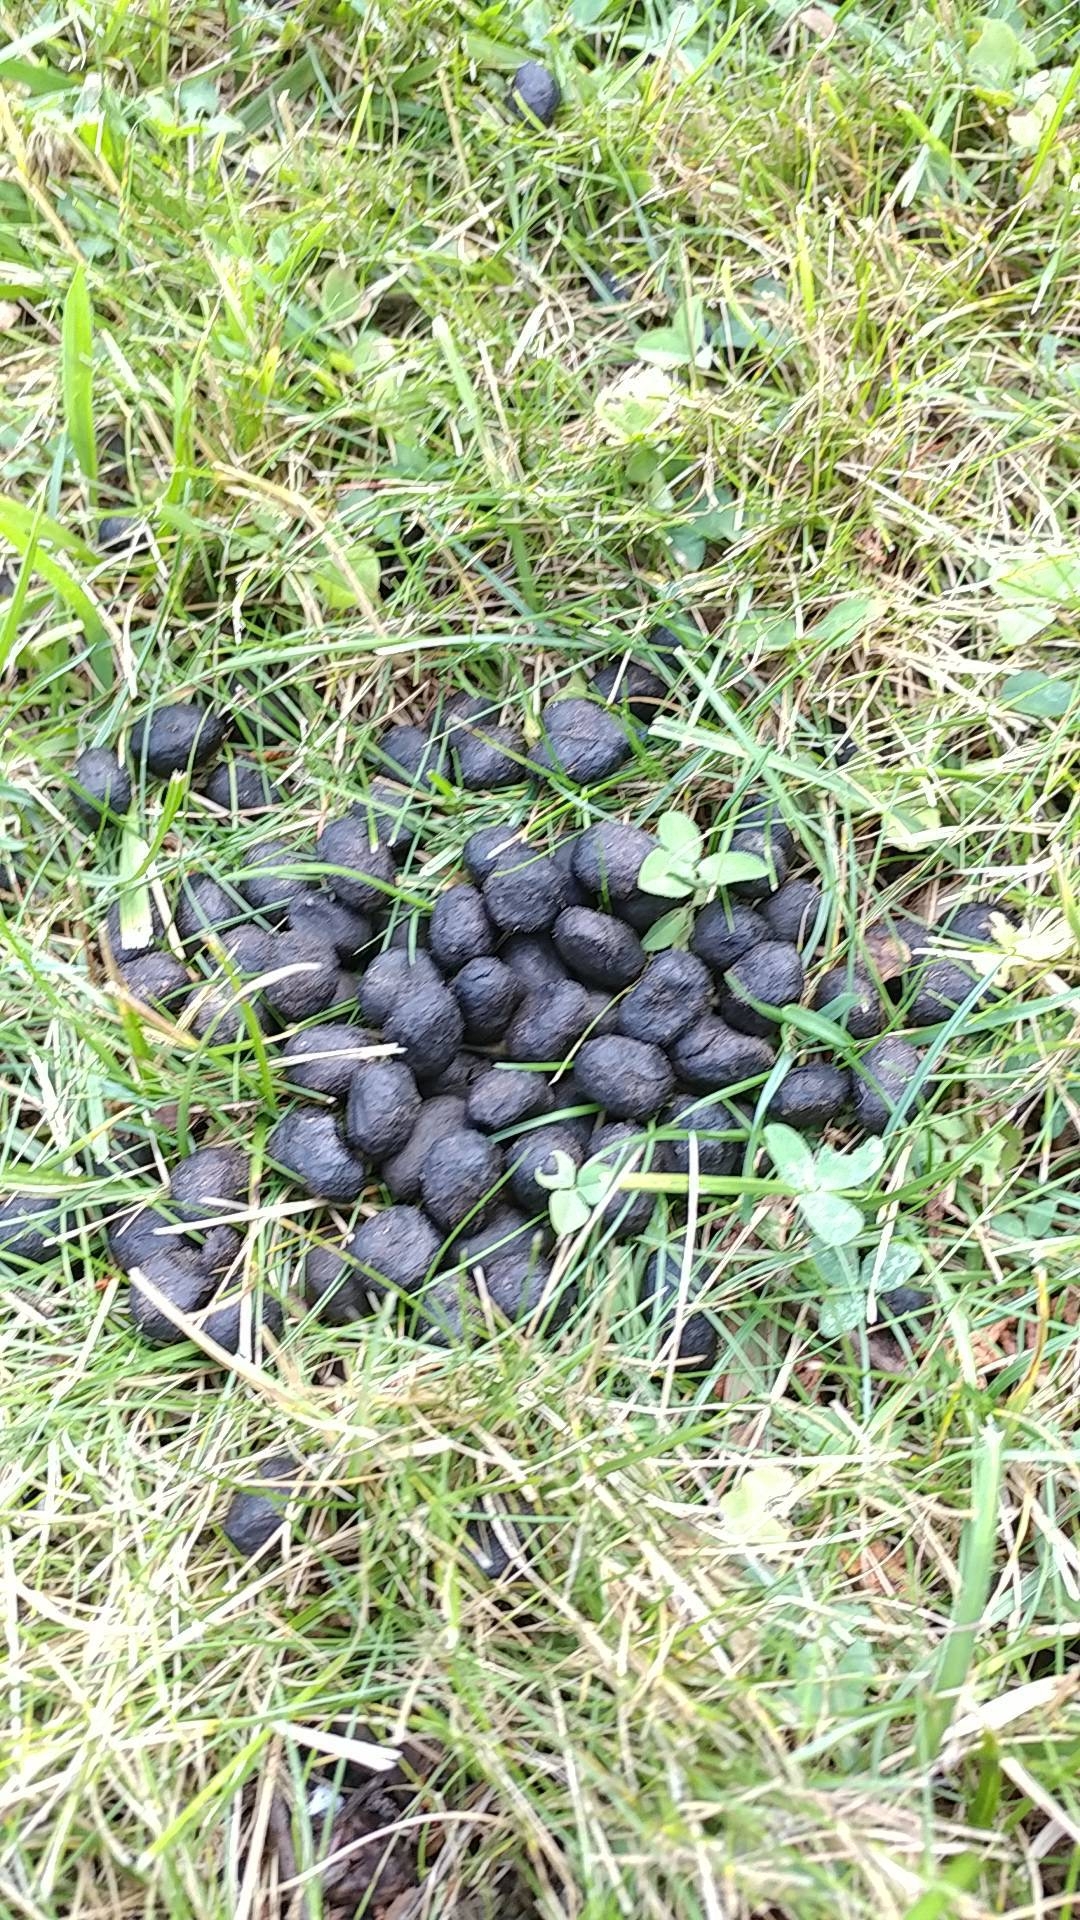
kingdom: Animalia
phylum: Chordata
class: Mammalia
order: Artiodactyla
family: Cervidae
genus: Odocoileus
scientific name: Odocoileus virginianus
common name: White-tailed deer
